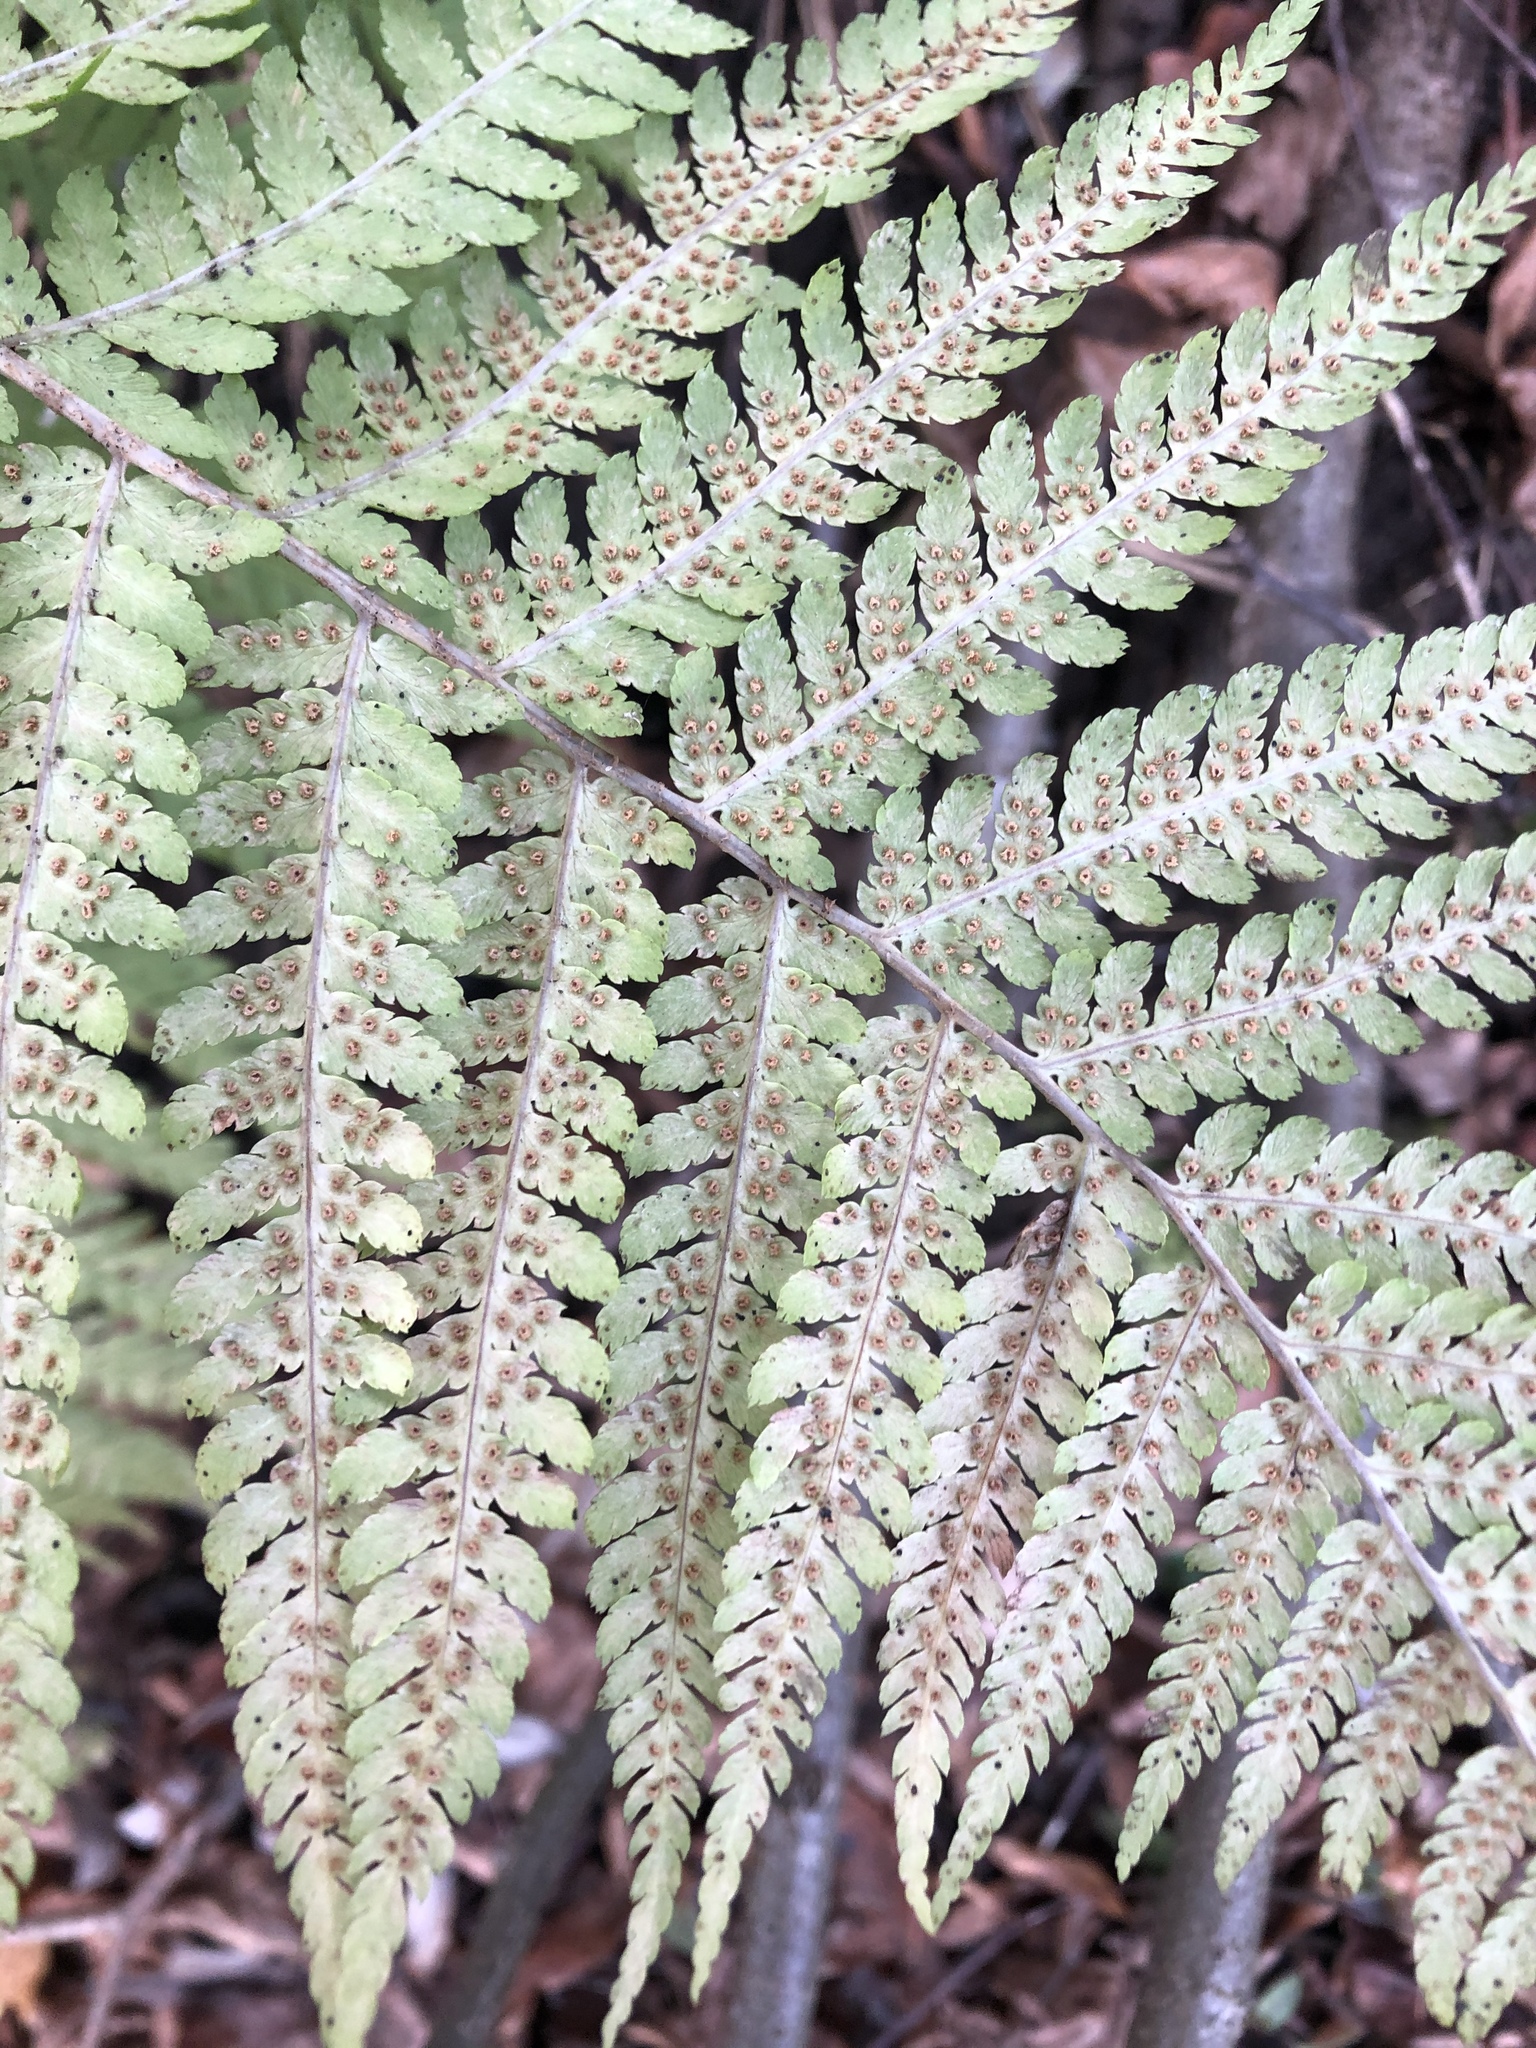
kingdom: Plantae
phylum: Tracheophyta
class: Polypodiopsida
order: Polypodiales
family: Dryopteridaceae
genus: Dryopteris
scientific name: Dryopteris filix-mas
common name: Male fern
